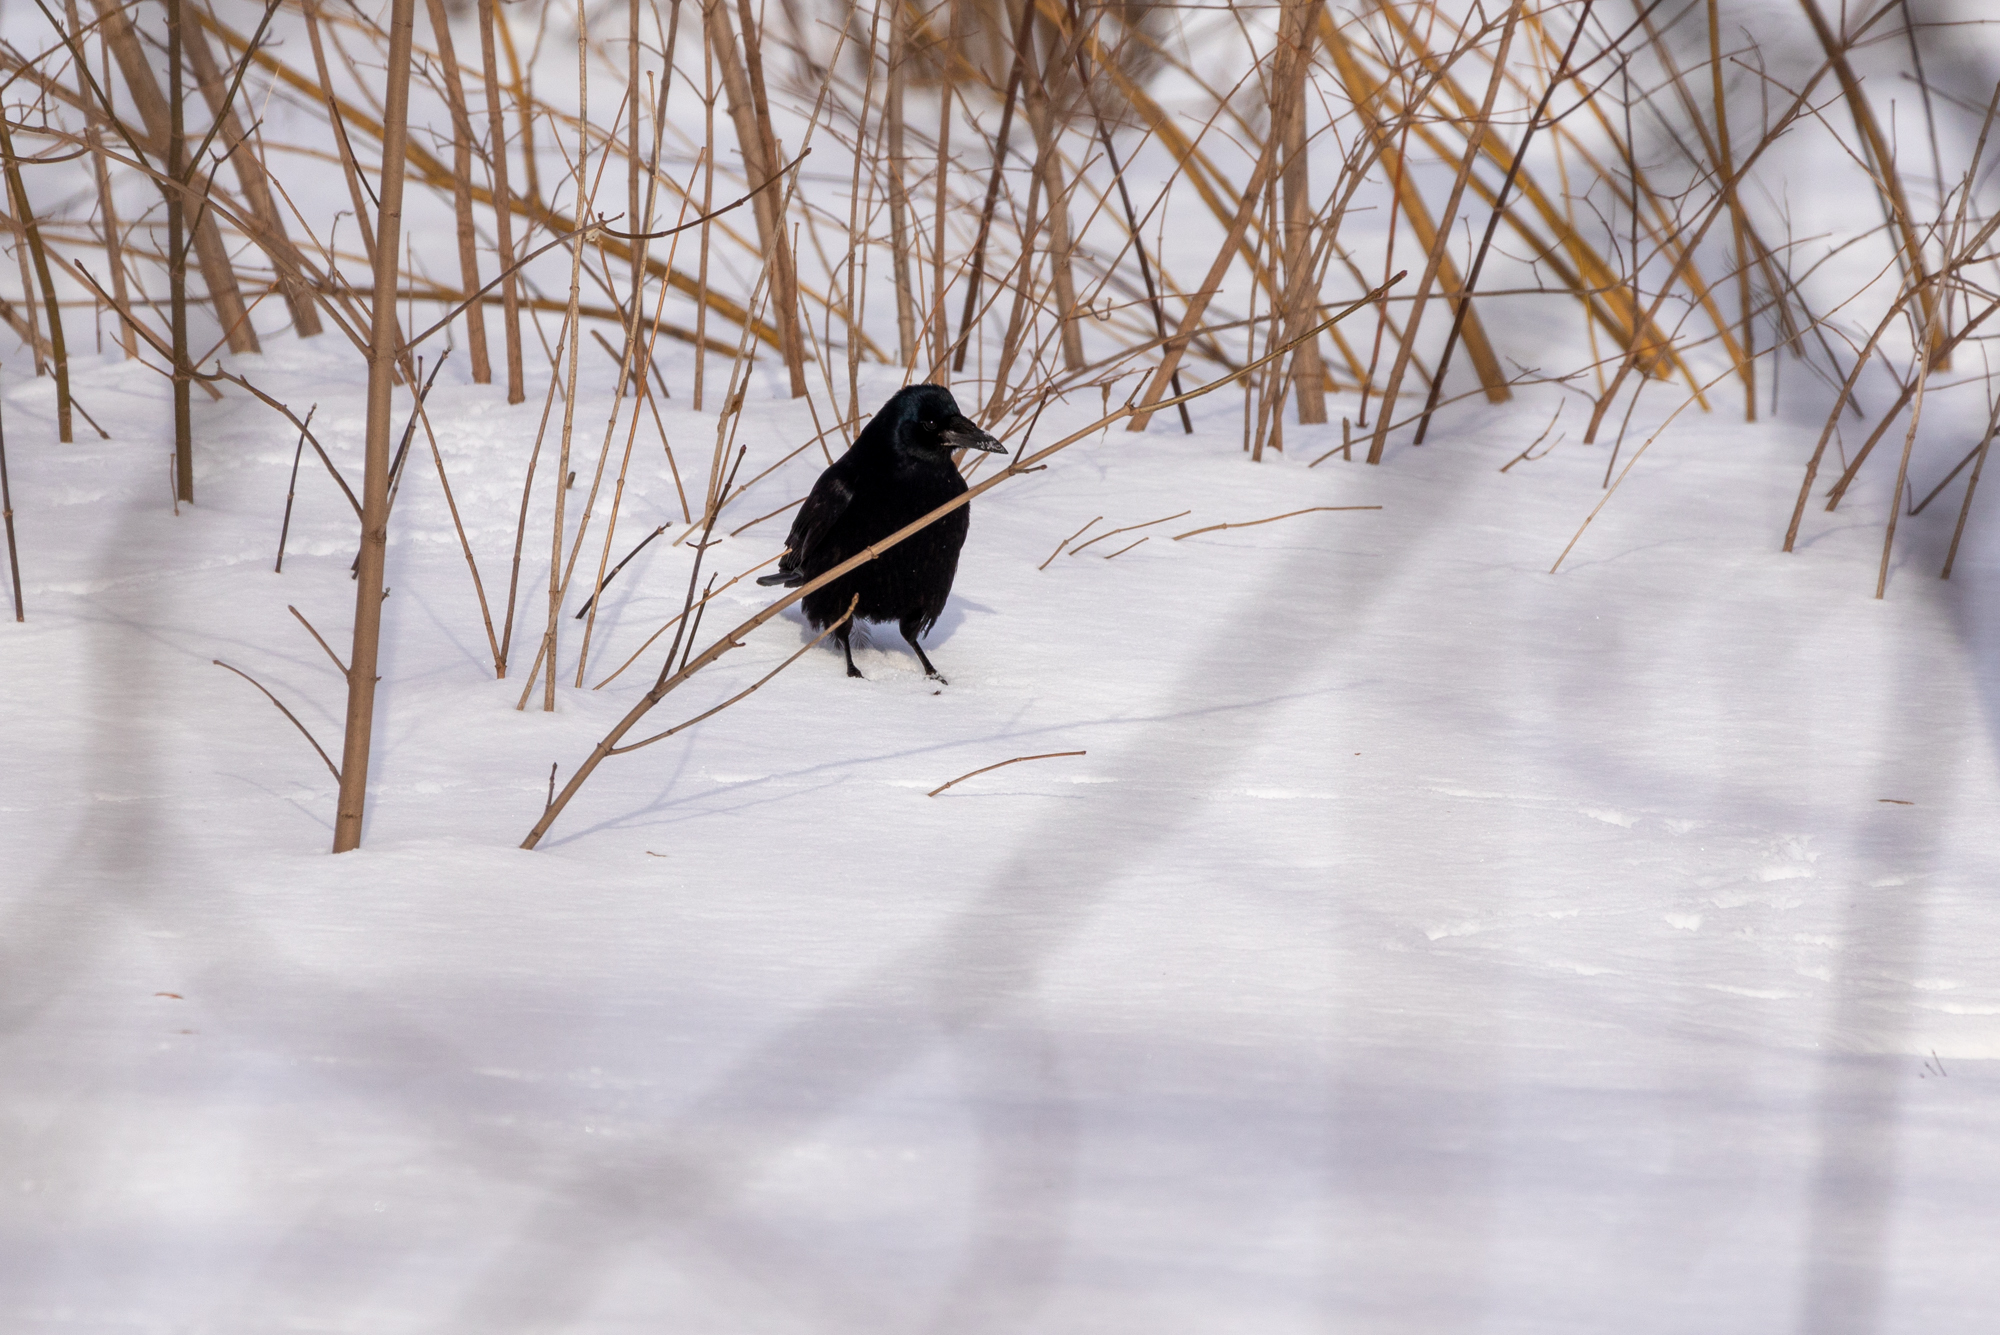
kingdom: Animalia
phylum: Chordata
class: Aves
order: Passeriformes
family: Corvidae
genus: Corvus
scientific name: Corvus frugilegus
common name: Rook
